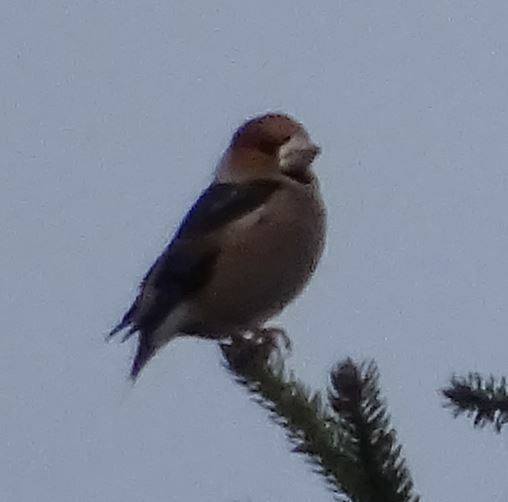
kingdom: Animalia
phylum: Chordata
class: Aves
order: Passeriformes
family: Fringillidae
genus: Coccothraustes
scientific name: Coccothraustes coccothraustes
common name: Hawfinch
